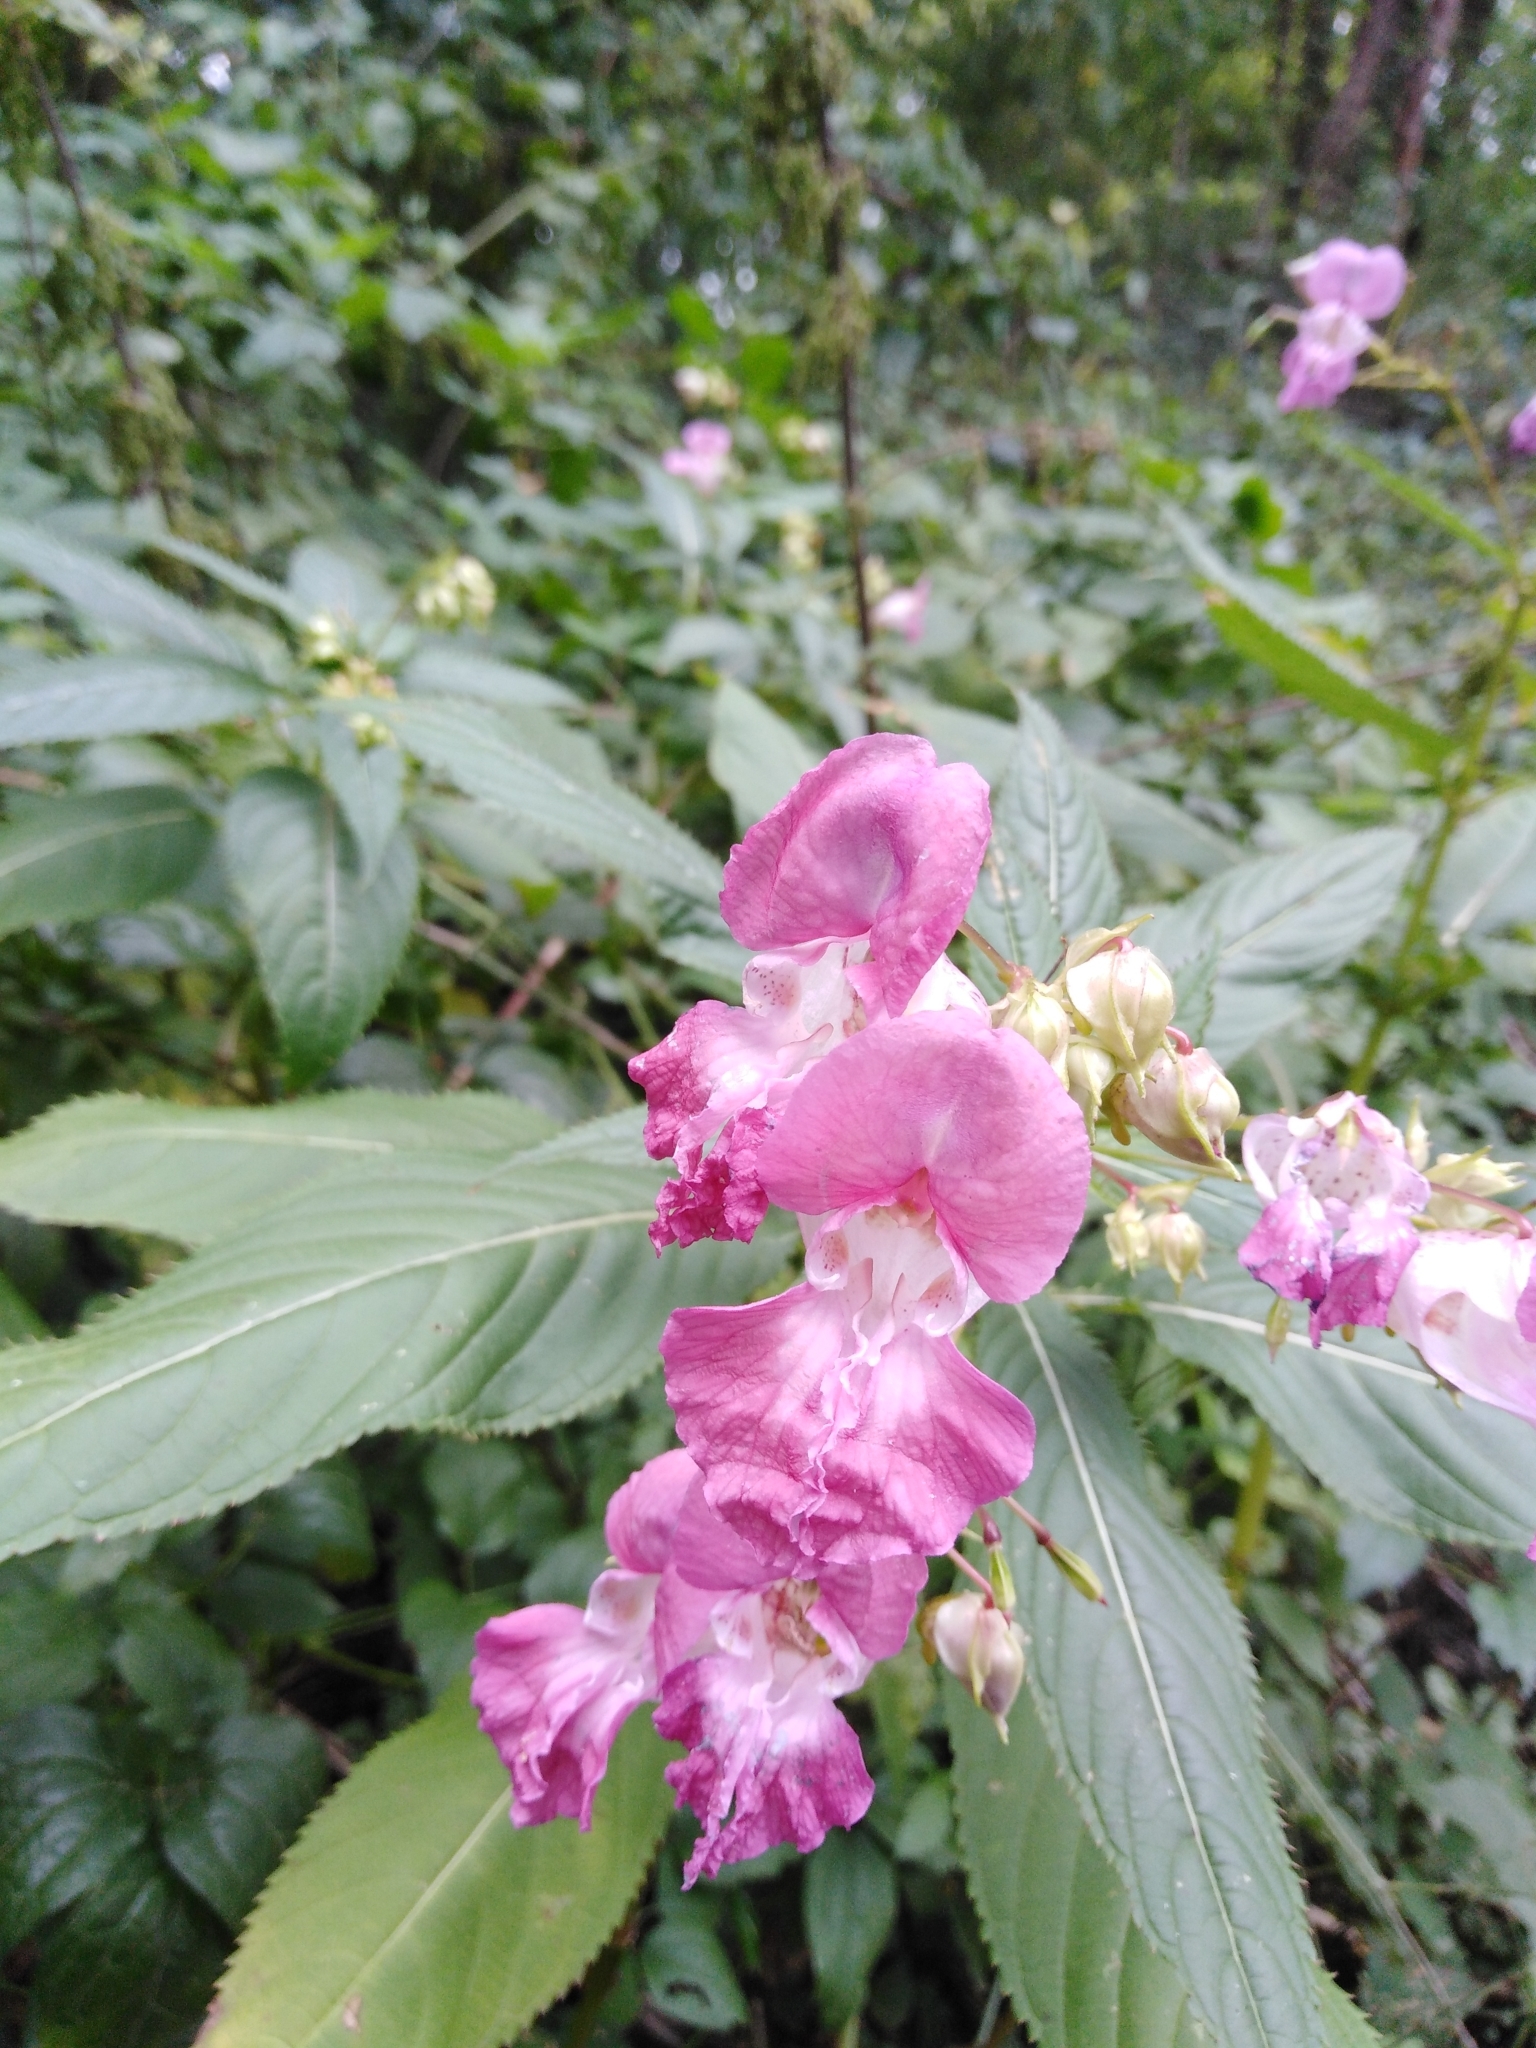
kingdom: Plantae
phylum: Tracheophyta
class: Magnoliopsida
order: Ericales
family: Balsaminaceae
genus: Impatiens
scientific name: Impatiens glandulifera
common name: Himalayan balsam
